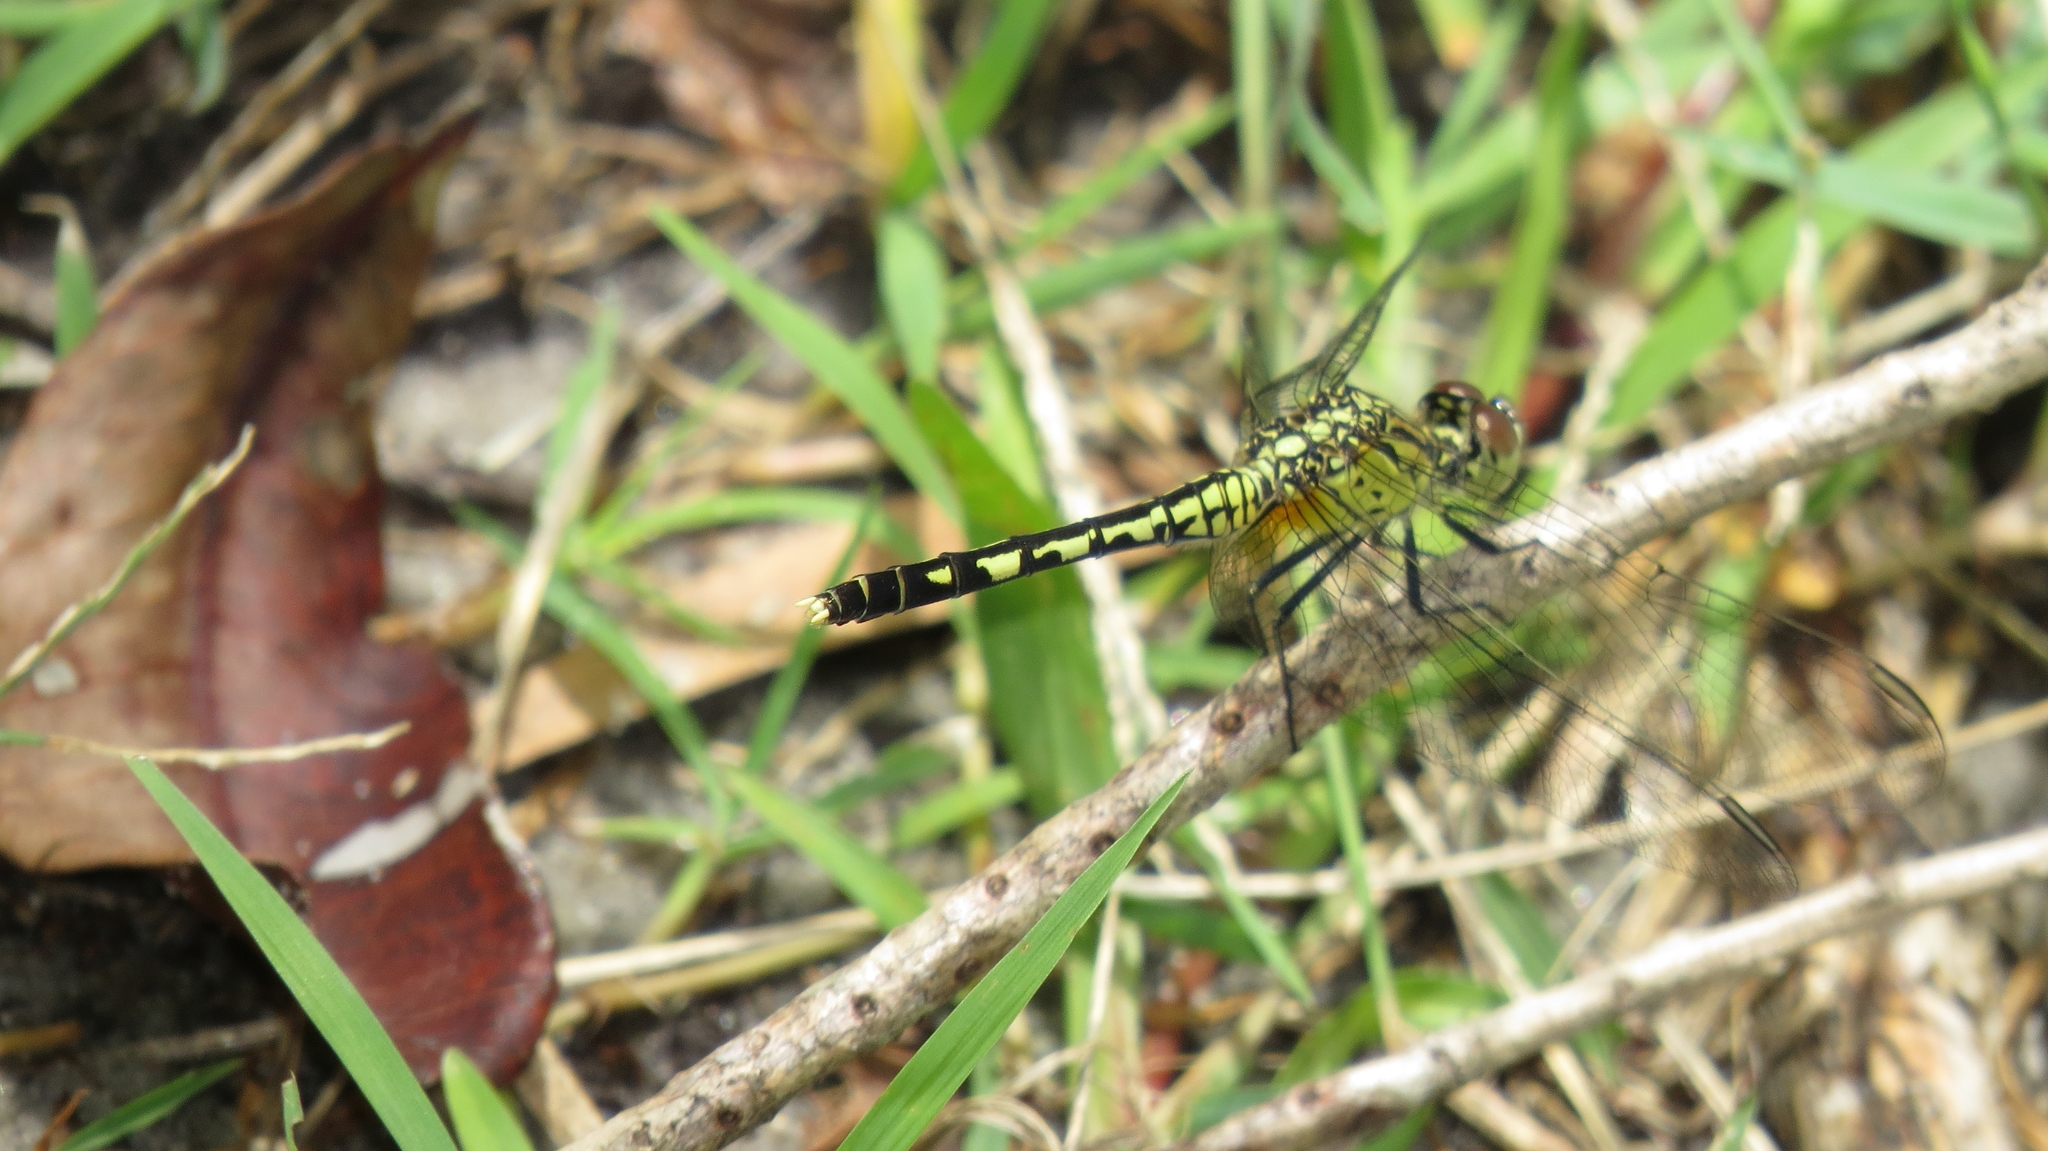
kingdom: Animalia
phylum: Arthropoda
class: Insecta
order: Odonata
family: Libellulidae
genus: Diplacodes
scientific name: Diplacodes trivialis
